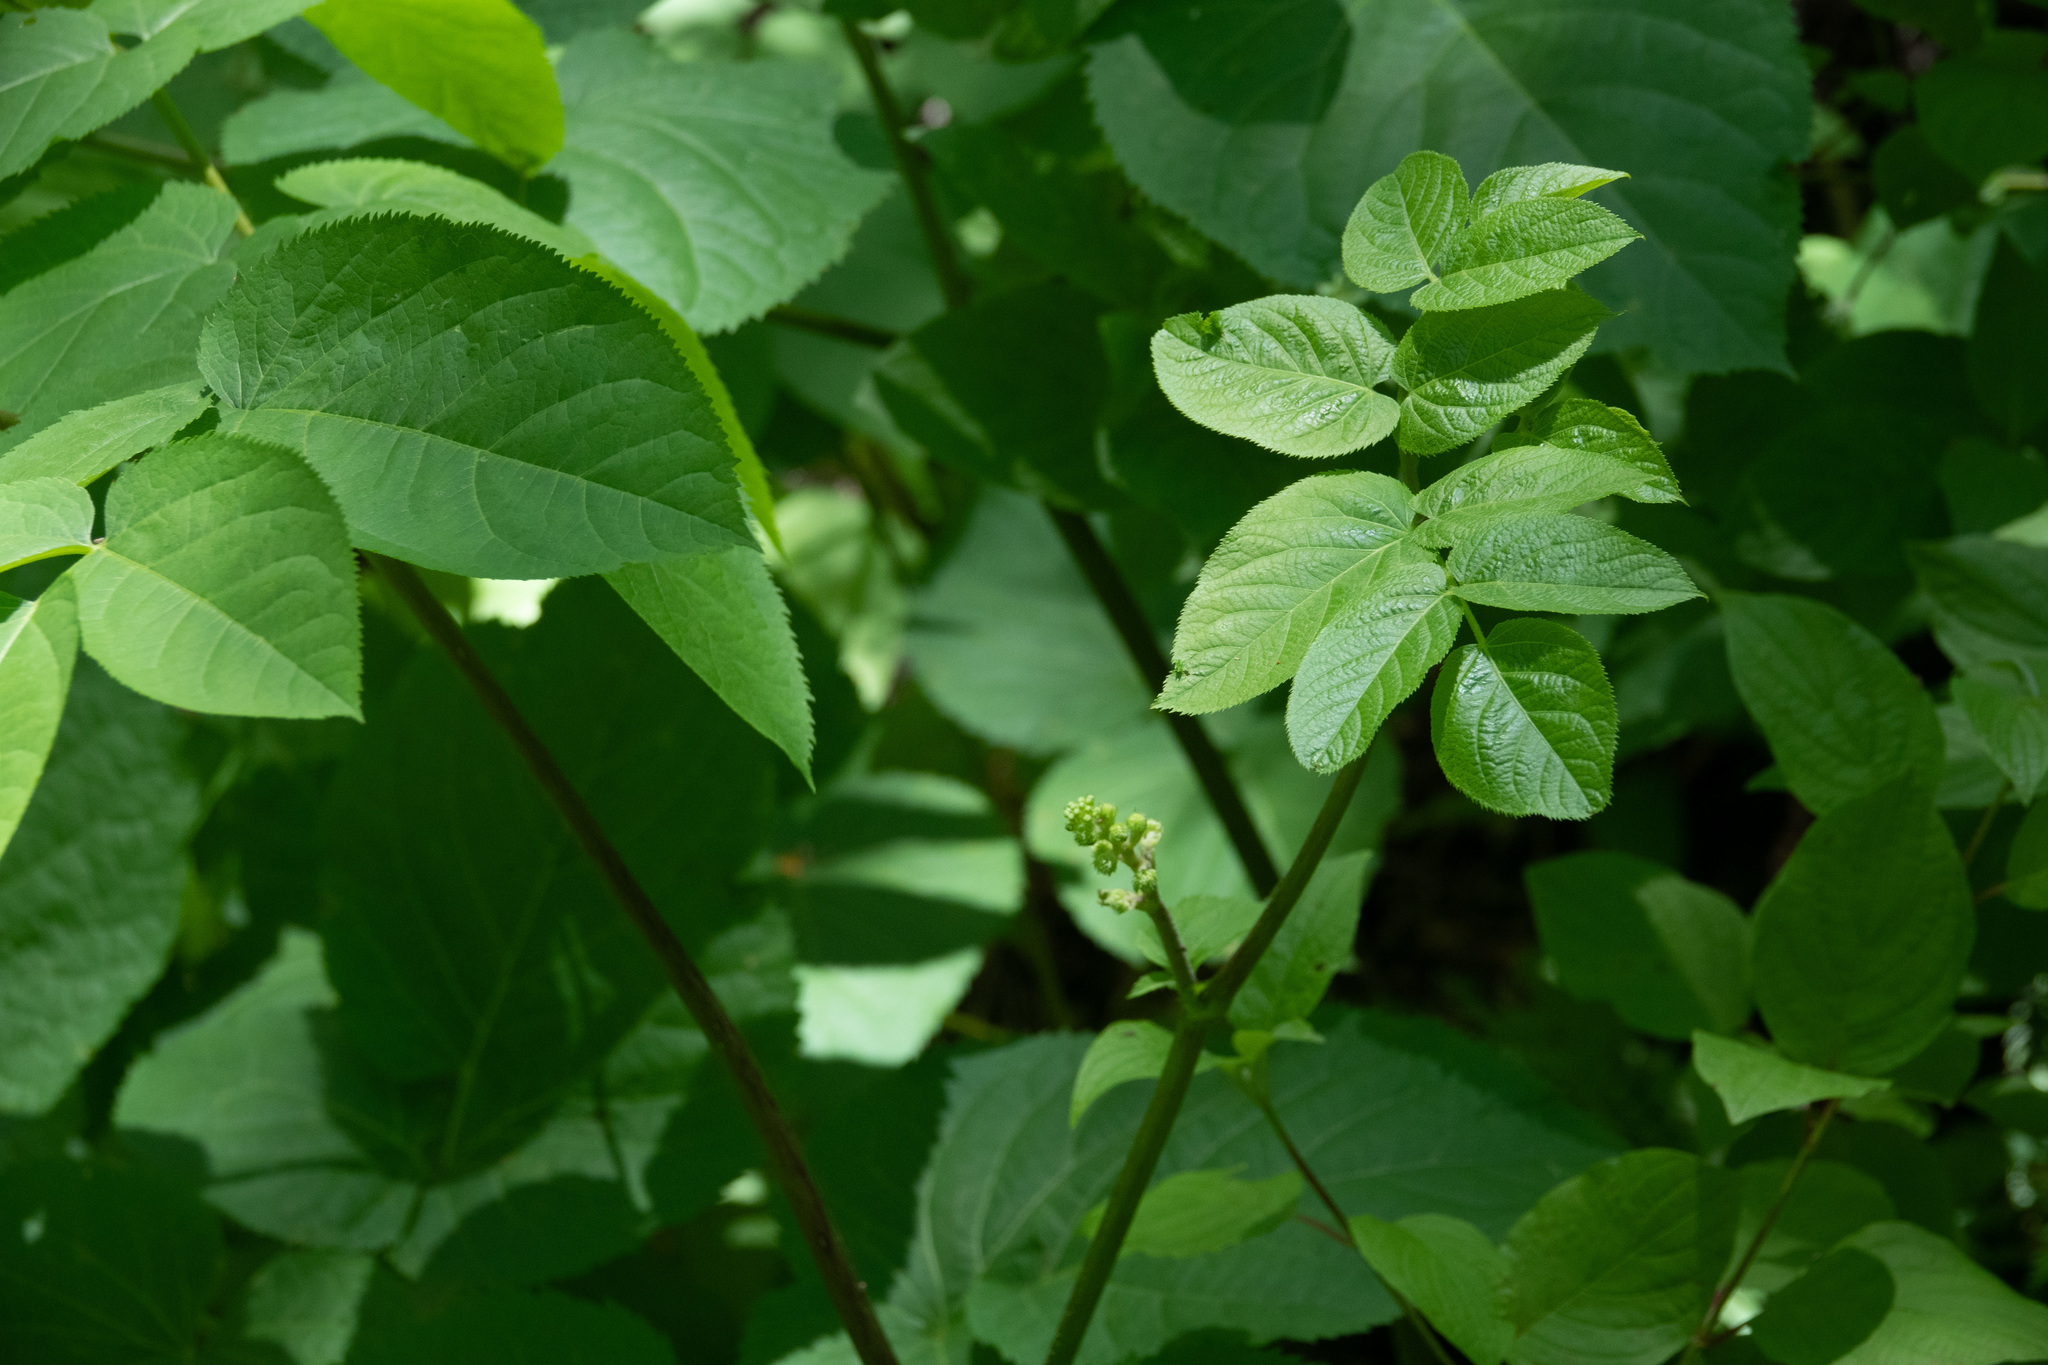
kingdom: Plantae
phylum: Tracheophyta
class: Magnoliopsida
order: Apiales
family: Araliaceae
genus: Aralia
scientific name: Aralia californica
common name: California-ginseng
